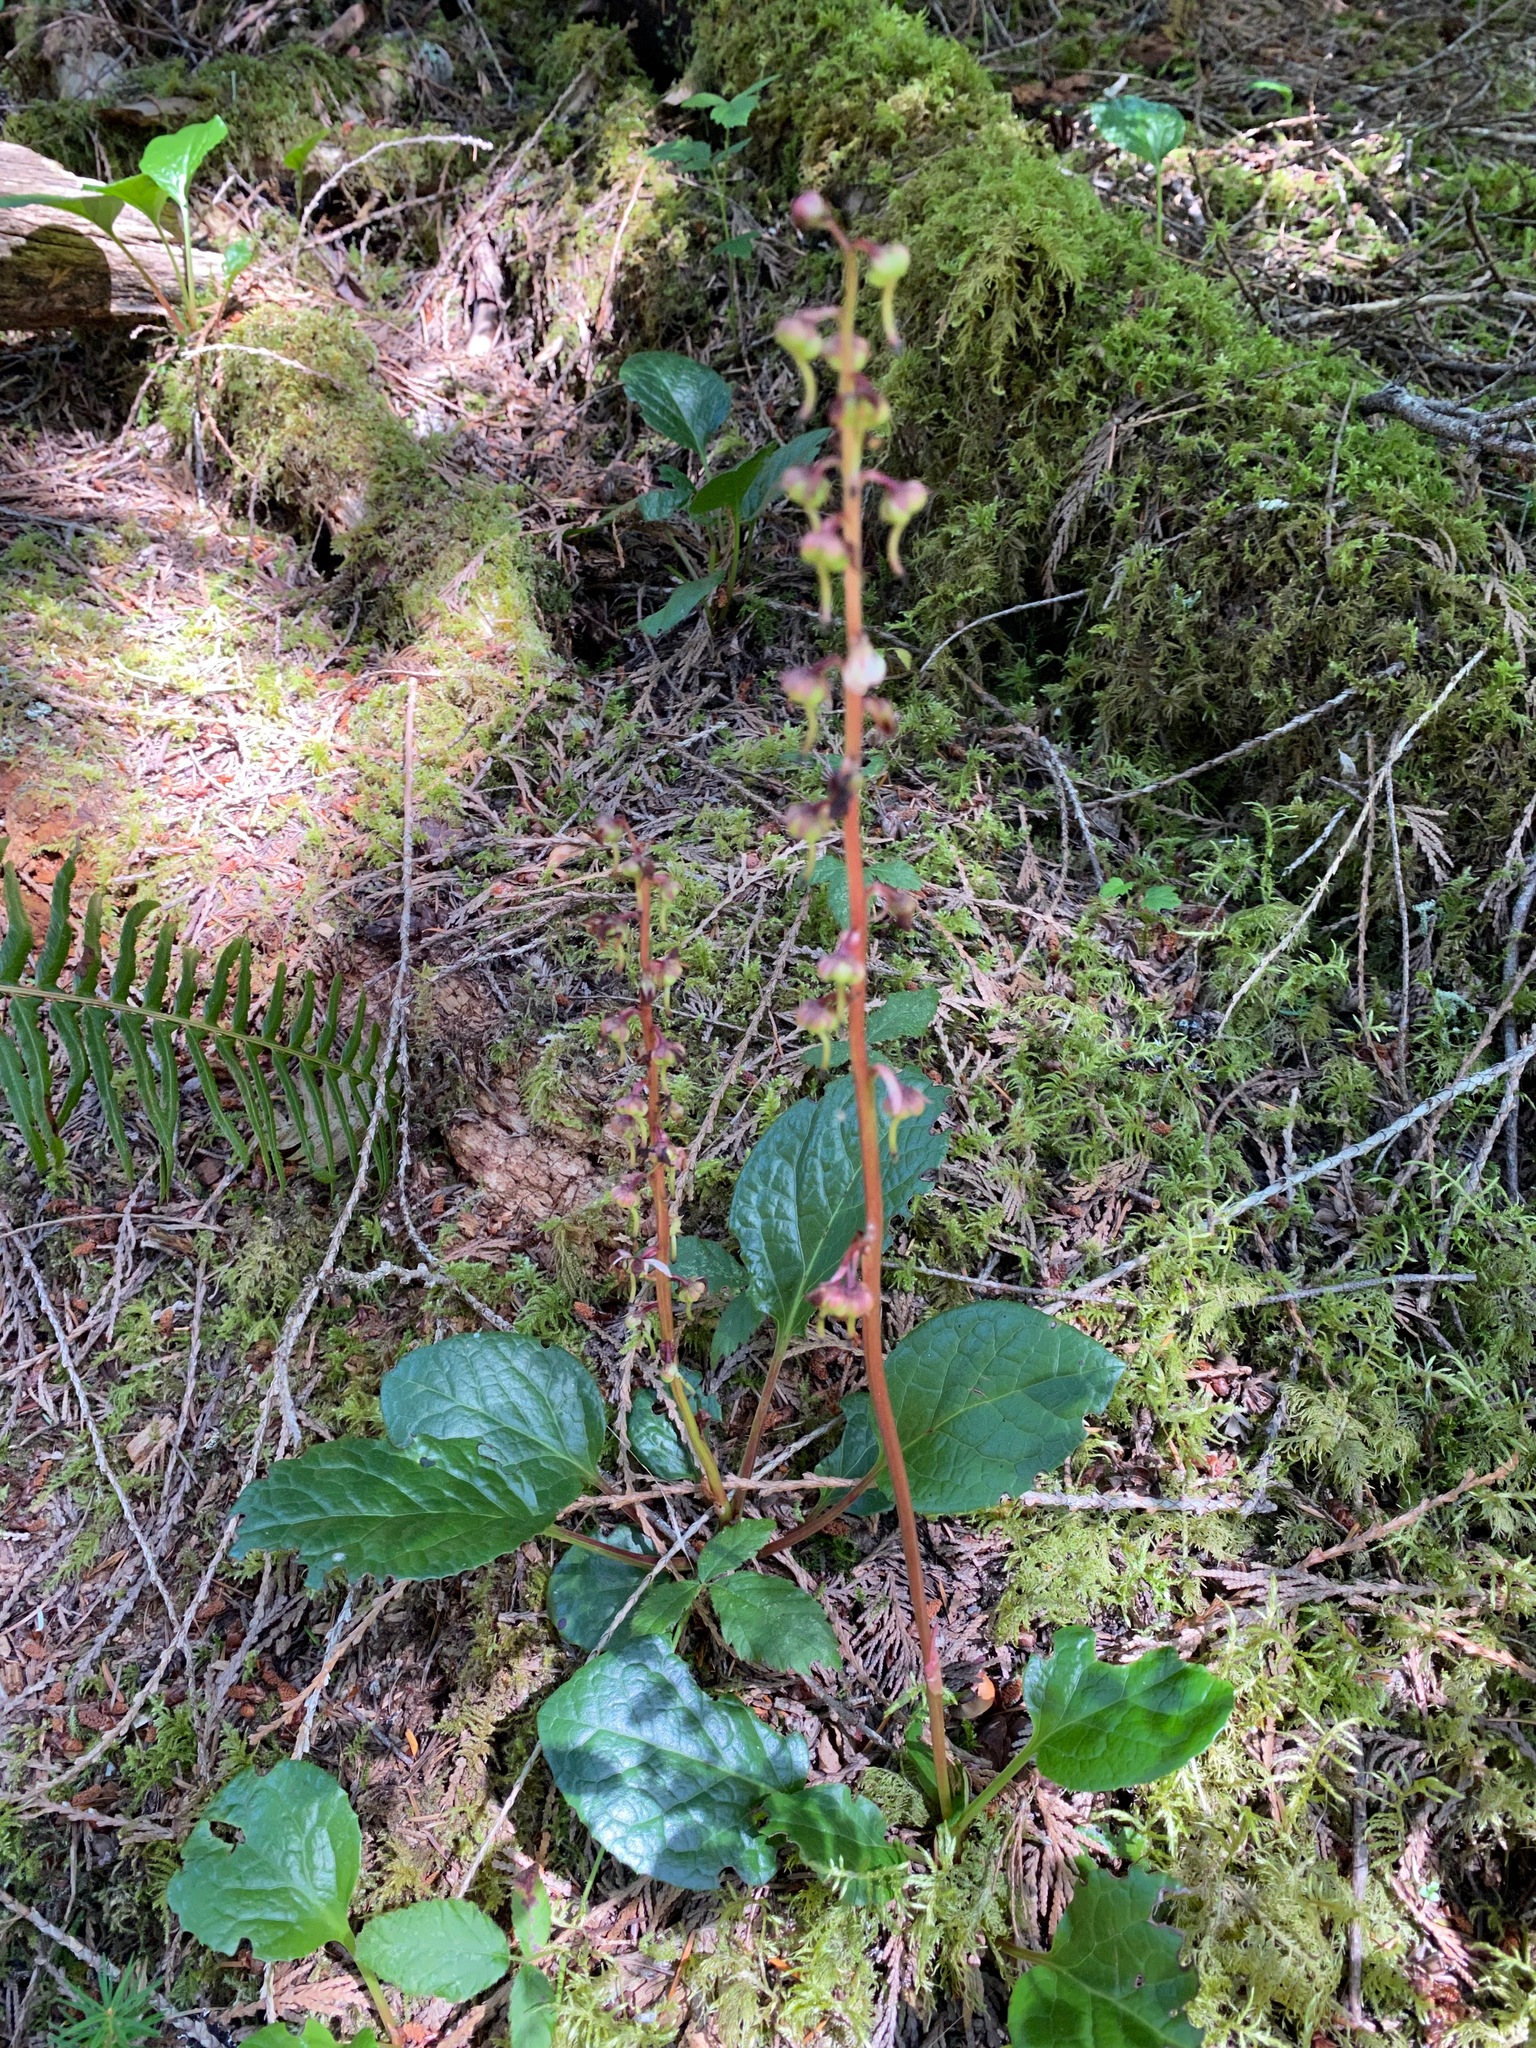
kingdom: Plantae
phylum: Tracheophyta
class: Magnoliopsida
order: Ericales
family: Ericaceae
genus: Pyrola
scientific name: Pyrola asarifolia
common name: Bog wintergreen
